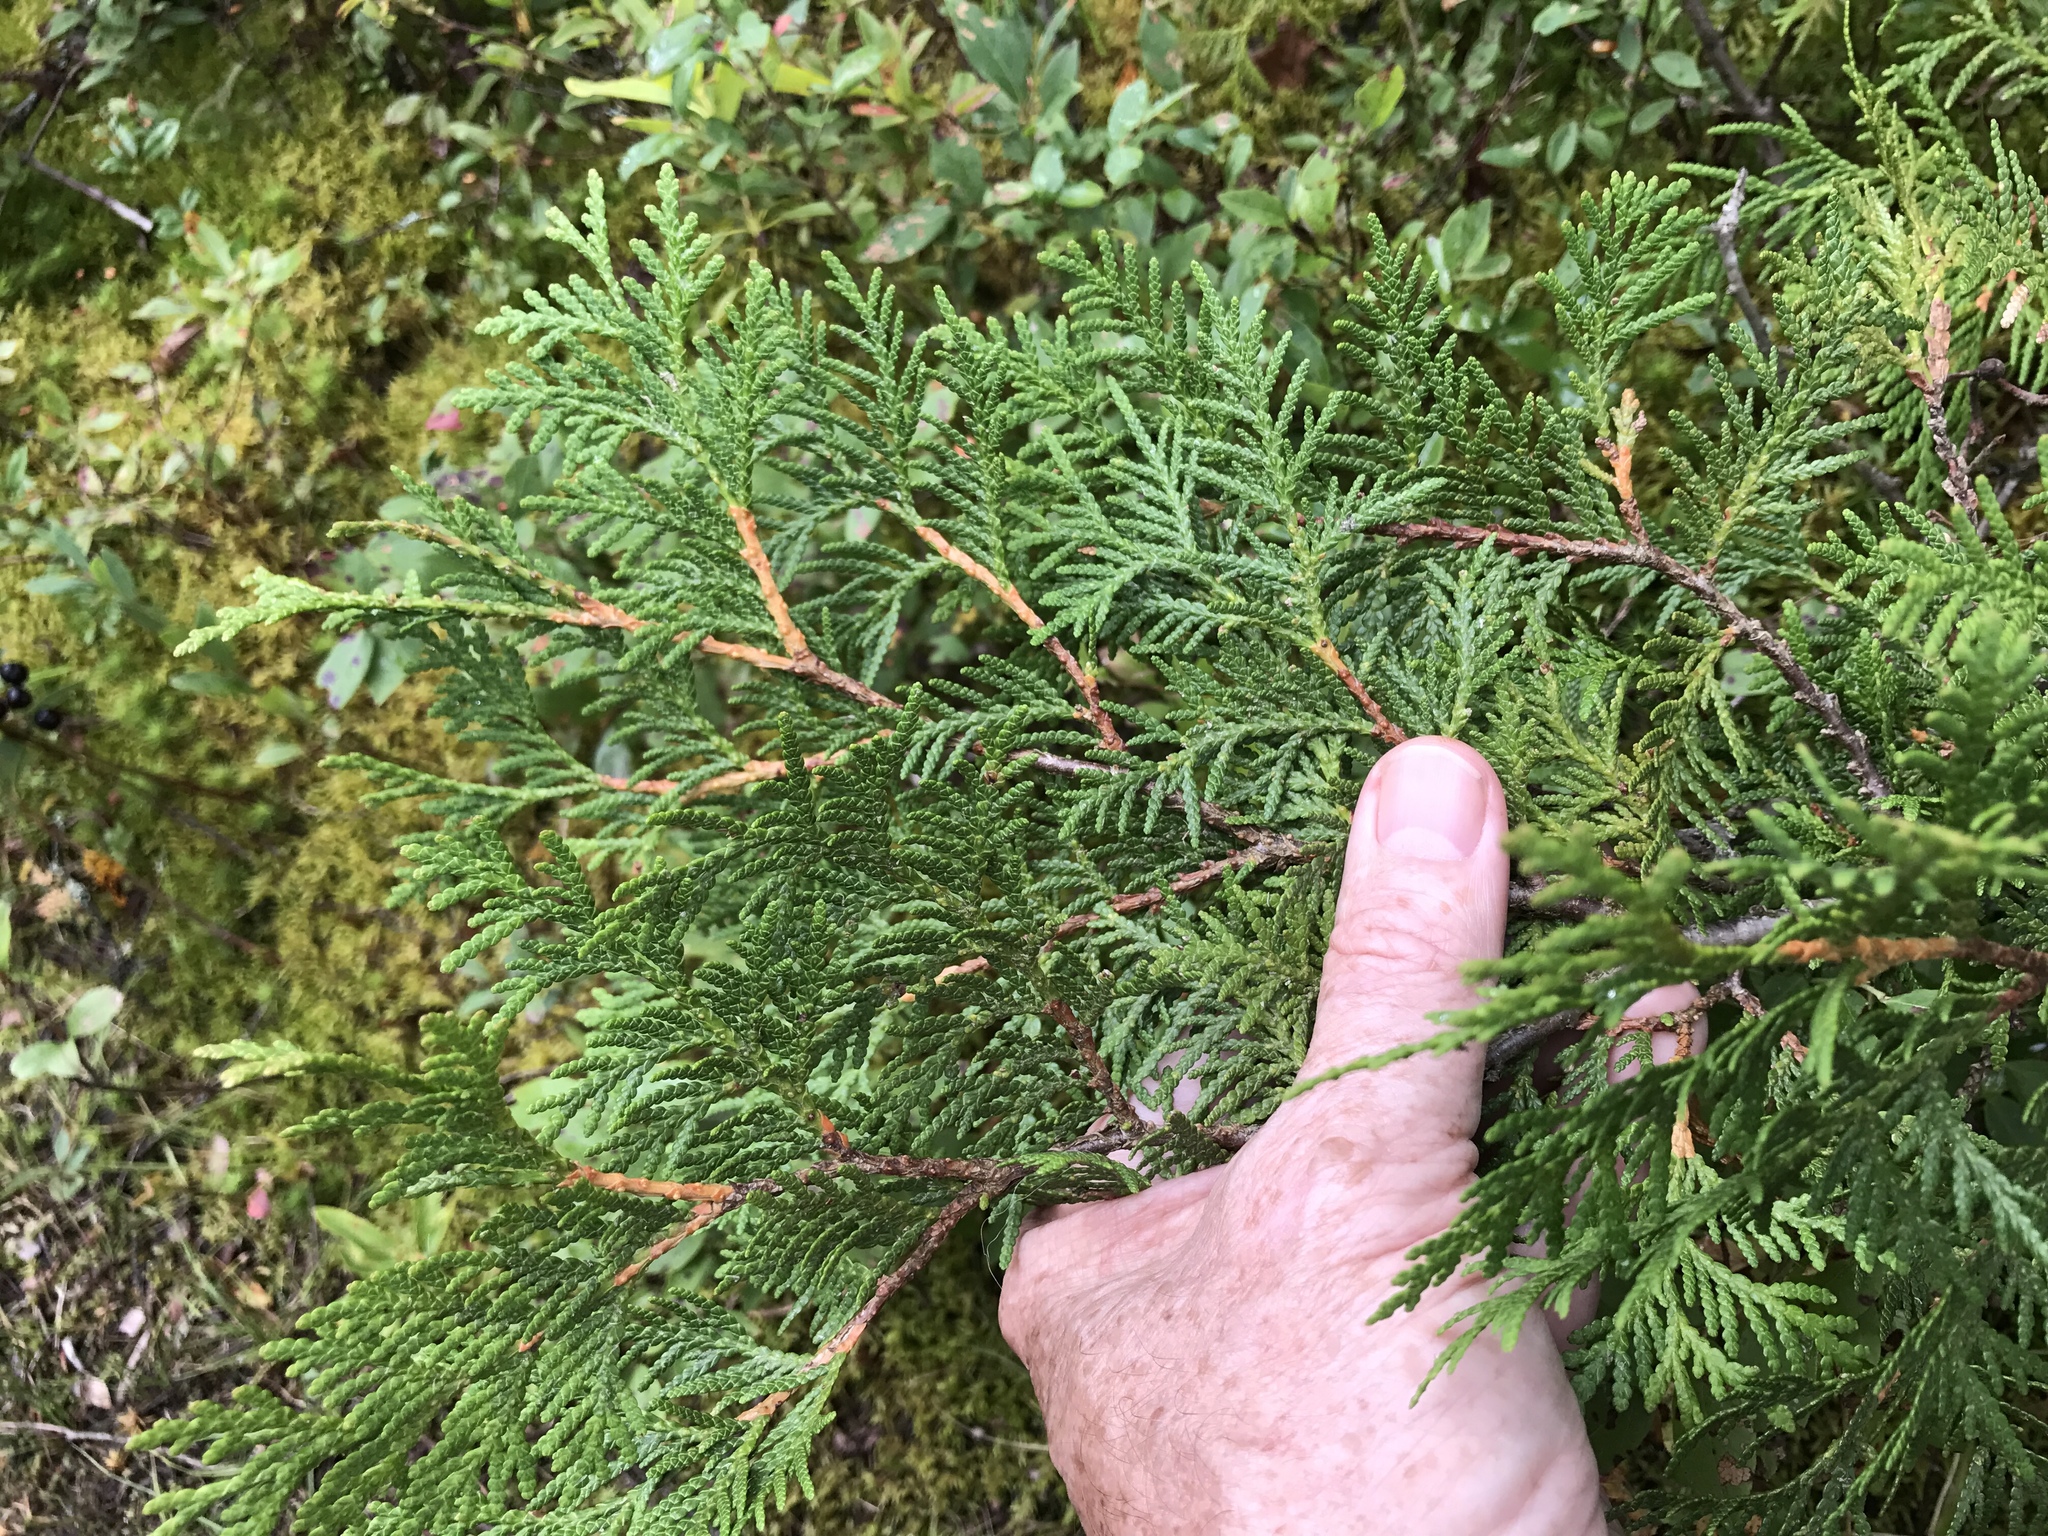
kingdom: Plantae
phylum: Tracheophyta
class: Pinopsida
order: Pinales
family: Cupressaceae
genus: Thuja
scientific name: Thuja occidentalis
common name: Northern white-cedar
